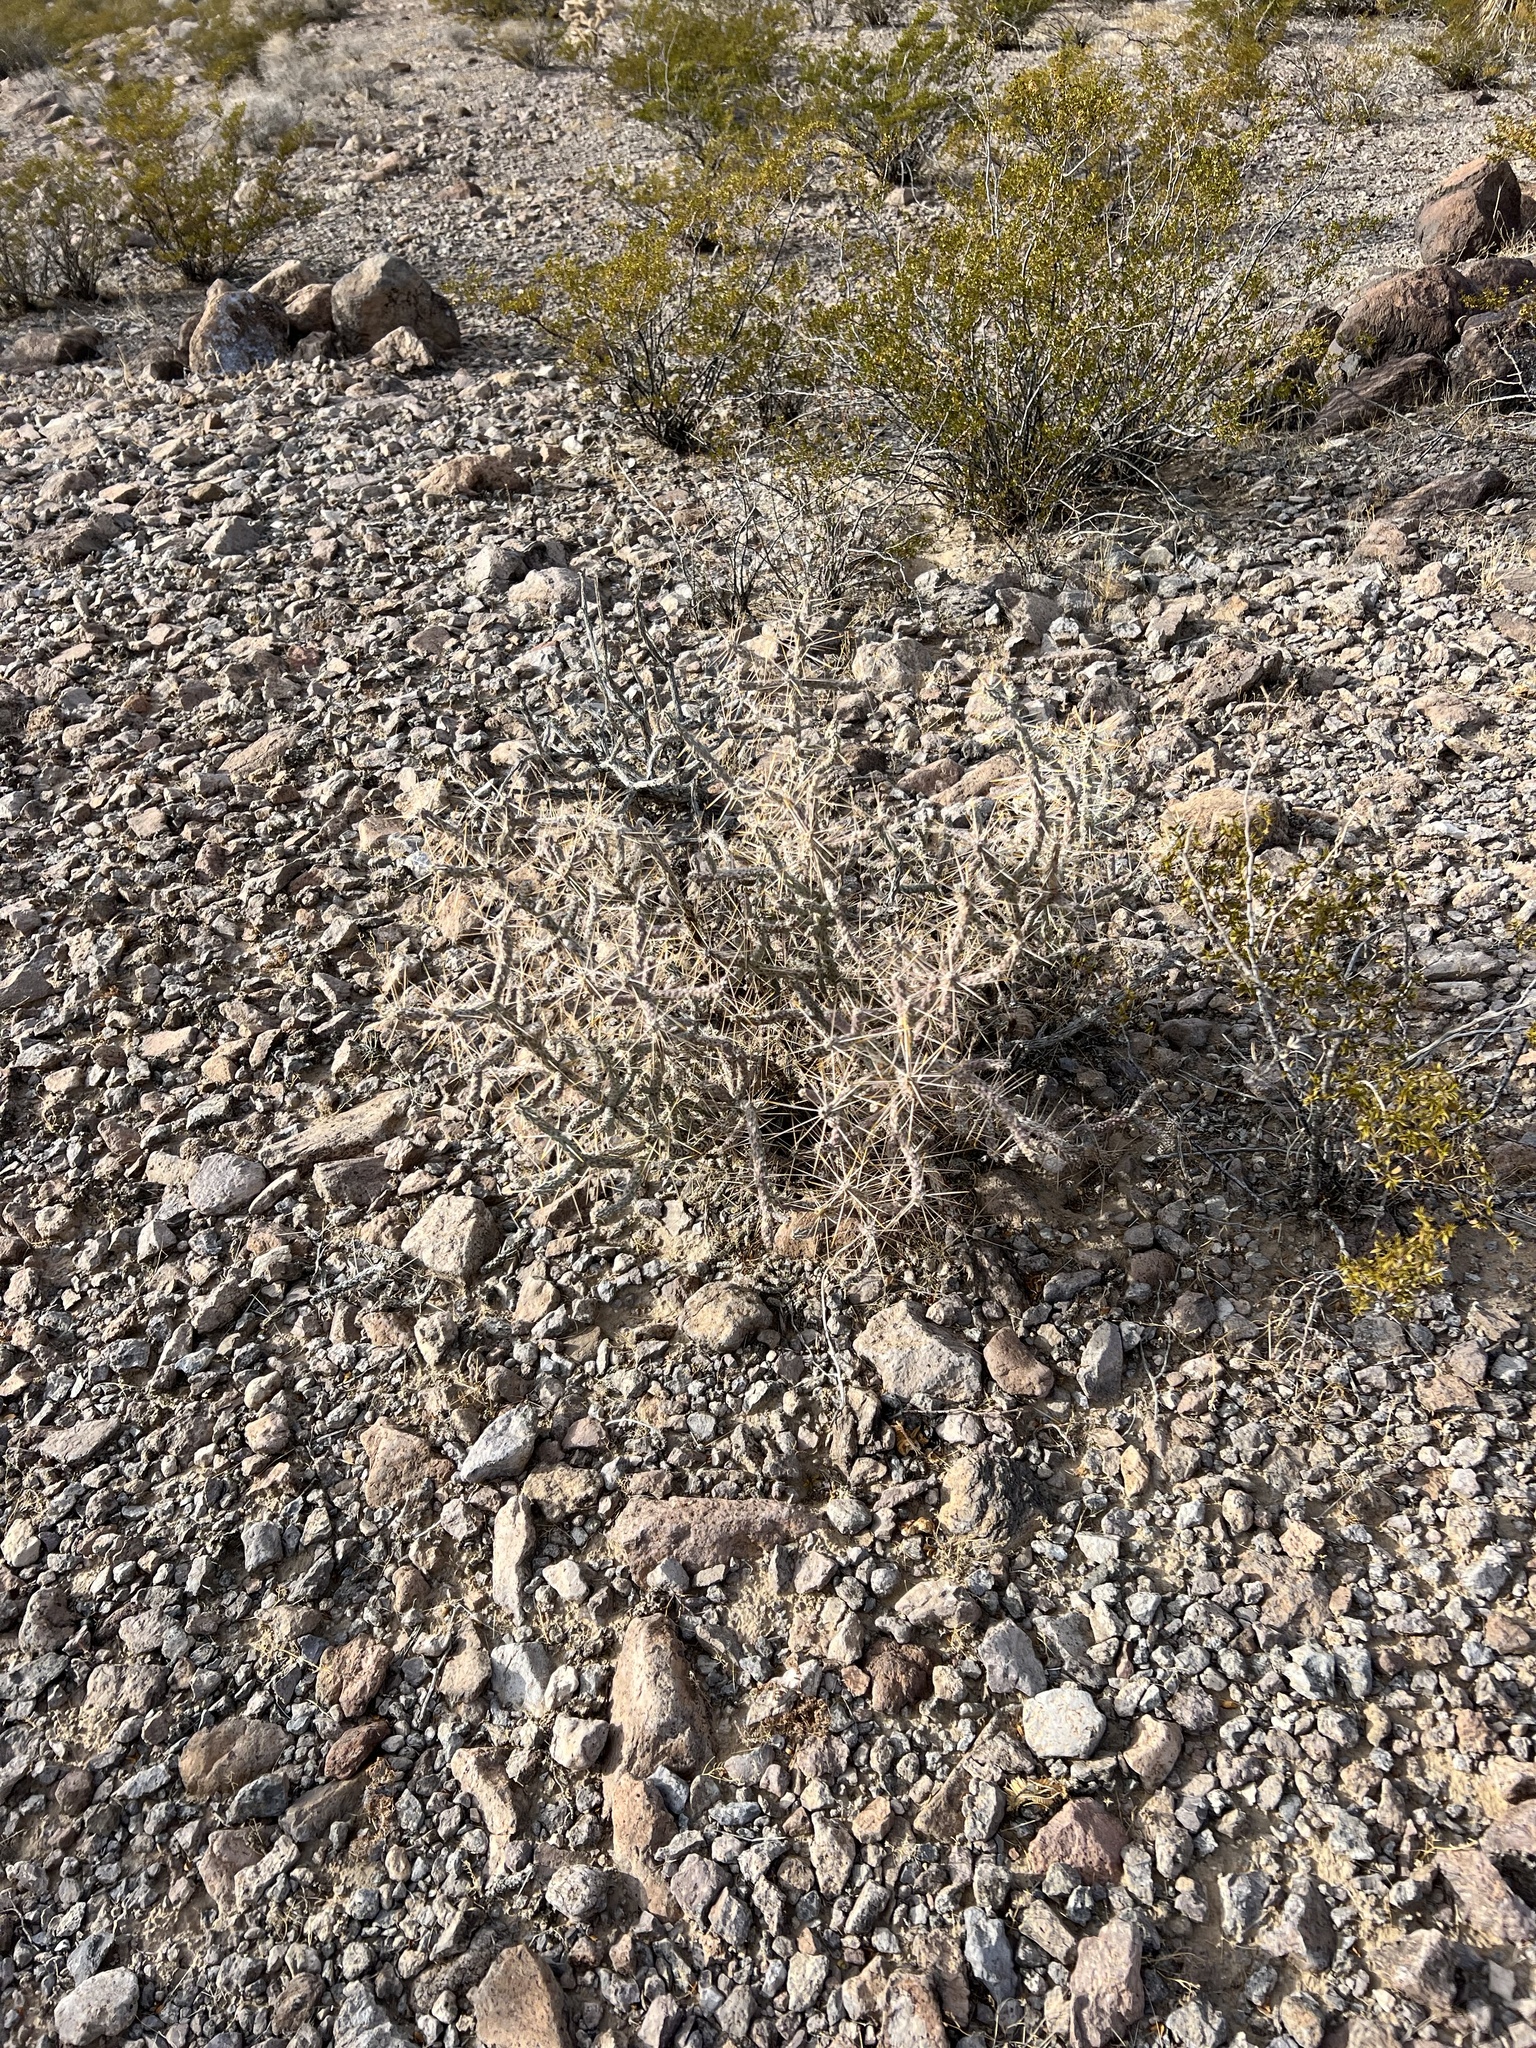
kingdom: Plantae
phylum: Tracheophyta
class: Magnoliopsida
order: Caryophyllales
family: Cactaceae
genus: Cylindropuntia
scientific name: Cylindropuntia ramosissima
